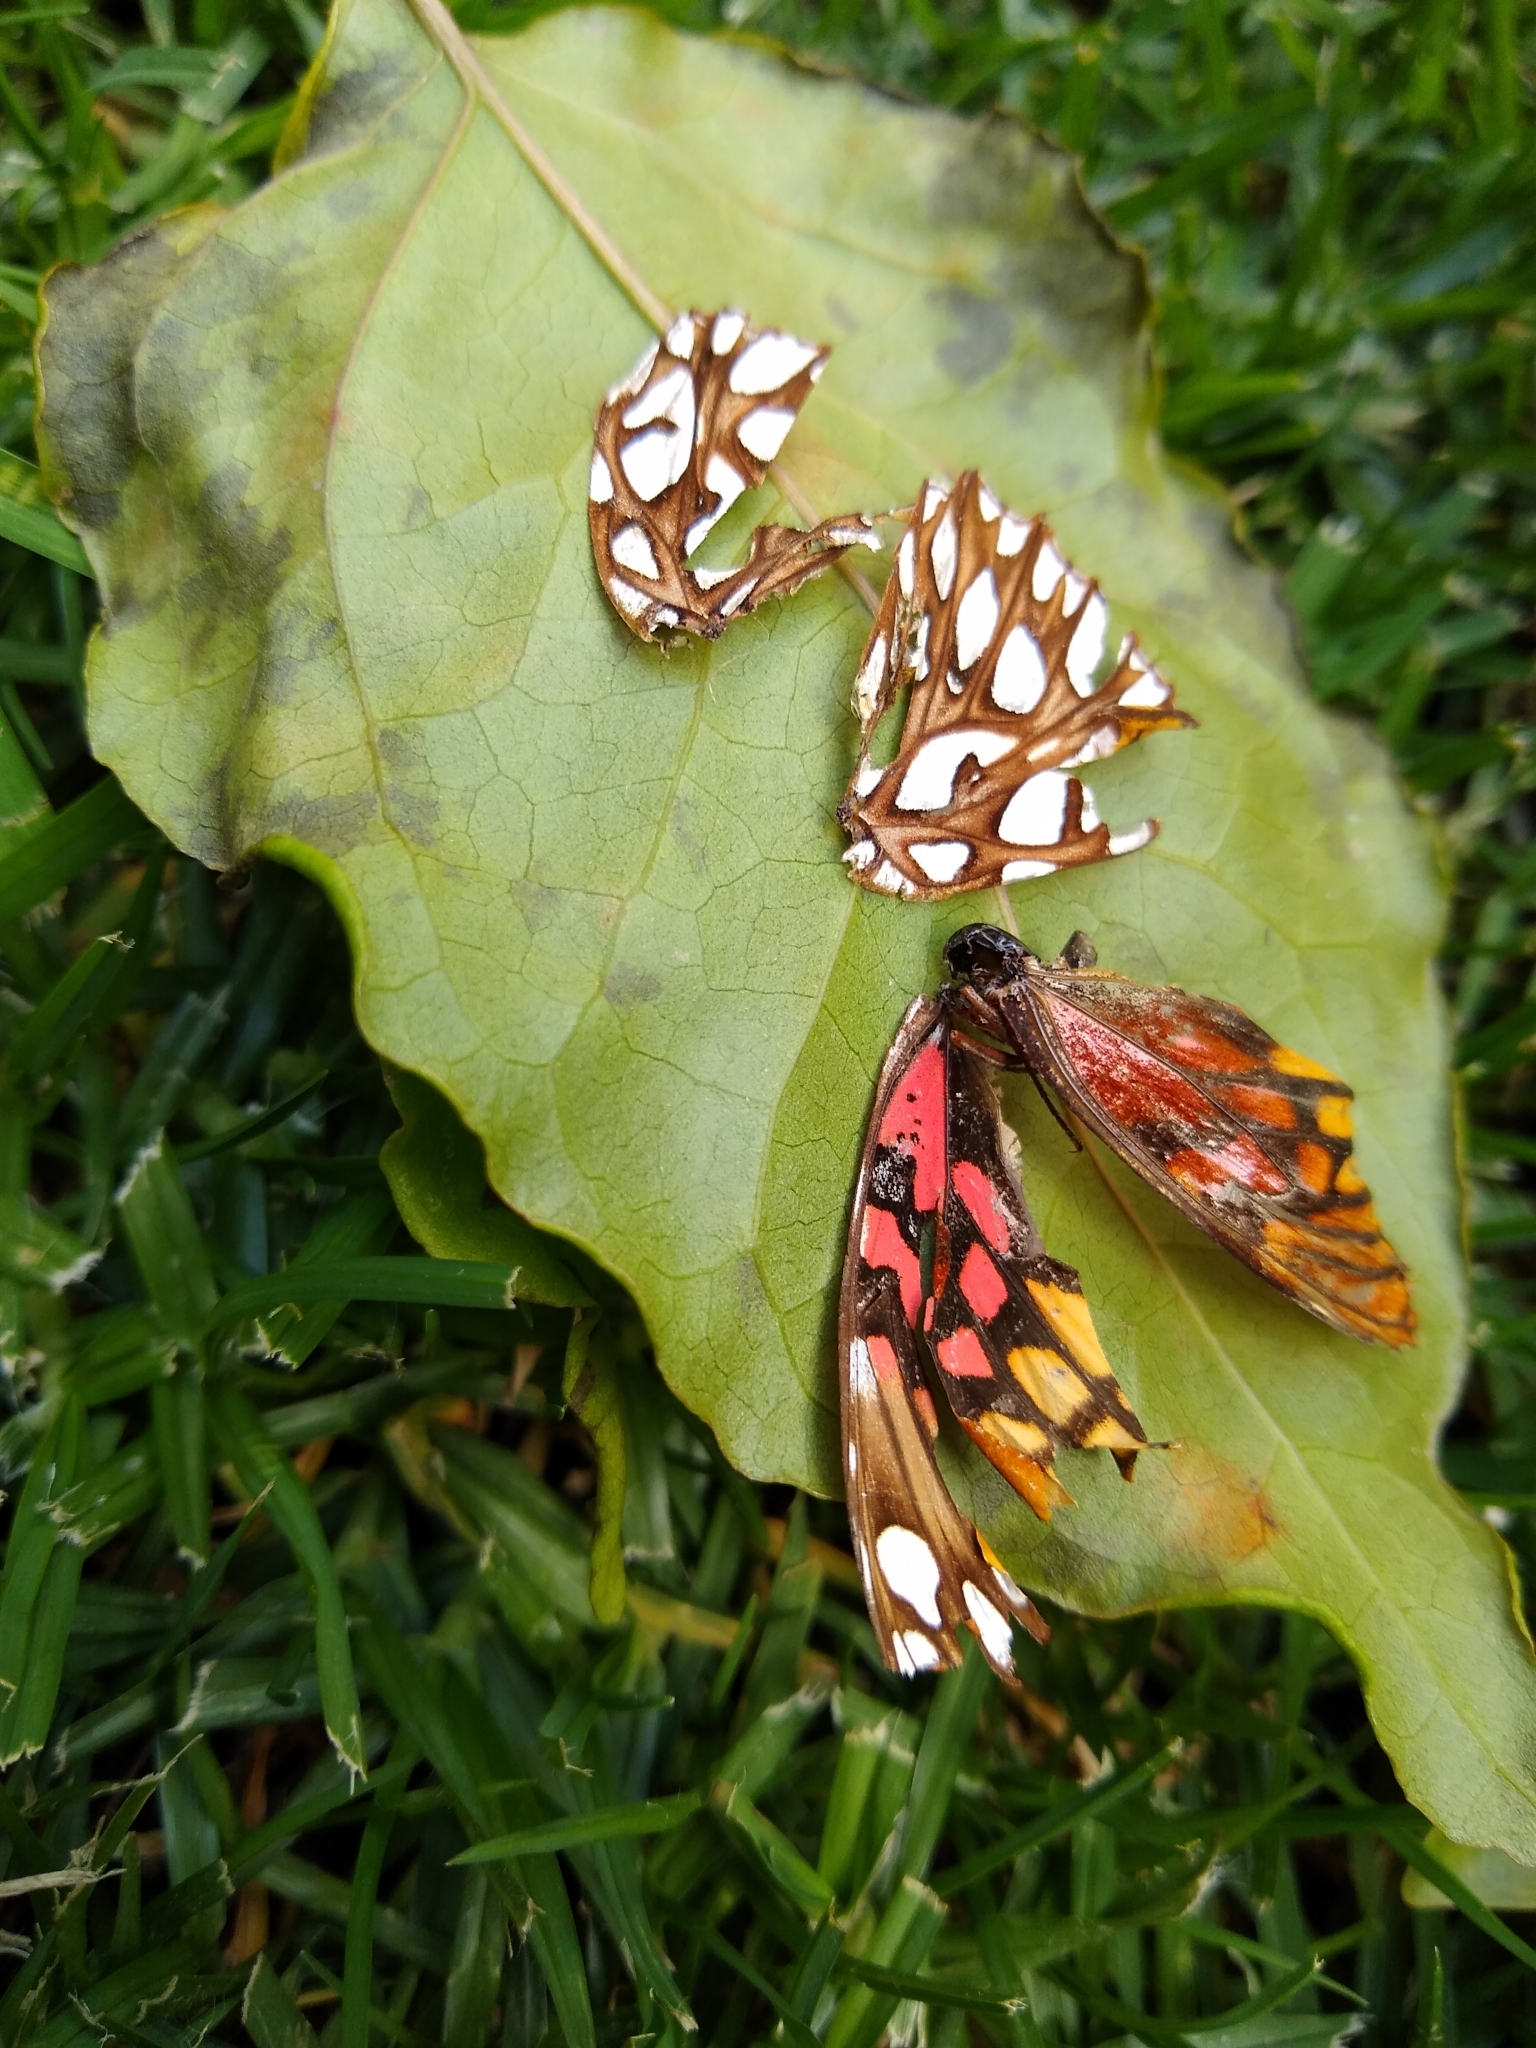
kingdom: Animalia
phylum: Arthropoda
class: Insecta
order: Lepidoptera
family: Nymphalidae
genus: Dione
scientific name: Dione moneta
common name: Mexican silverspot
